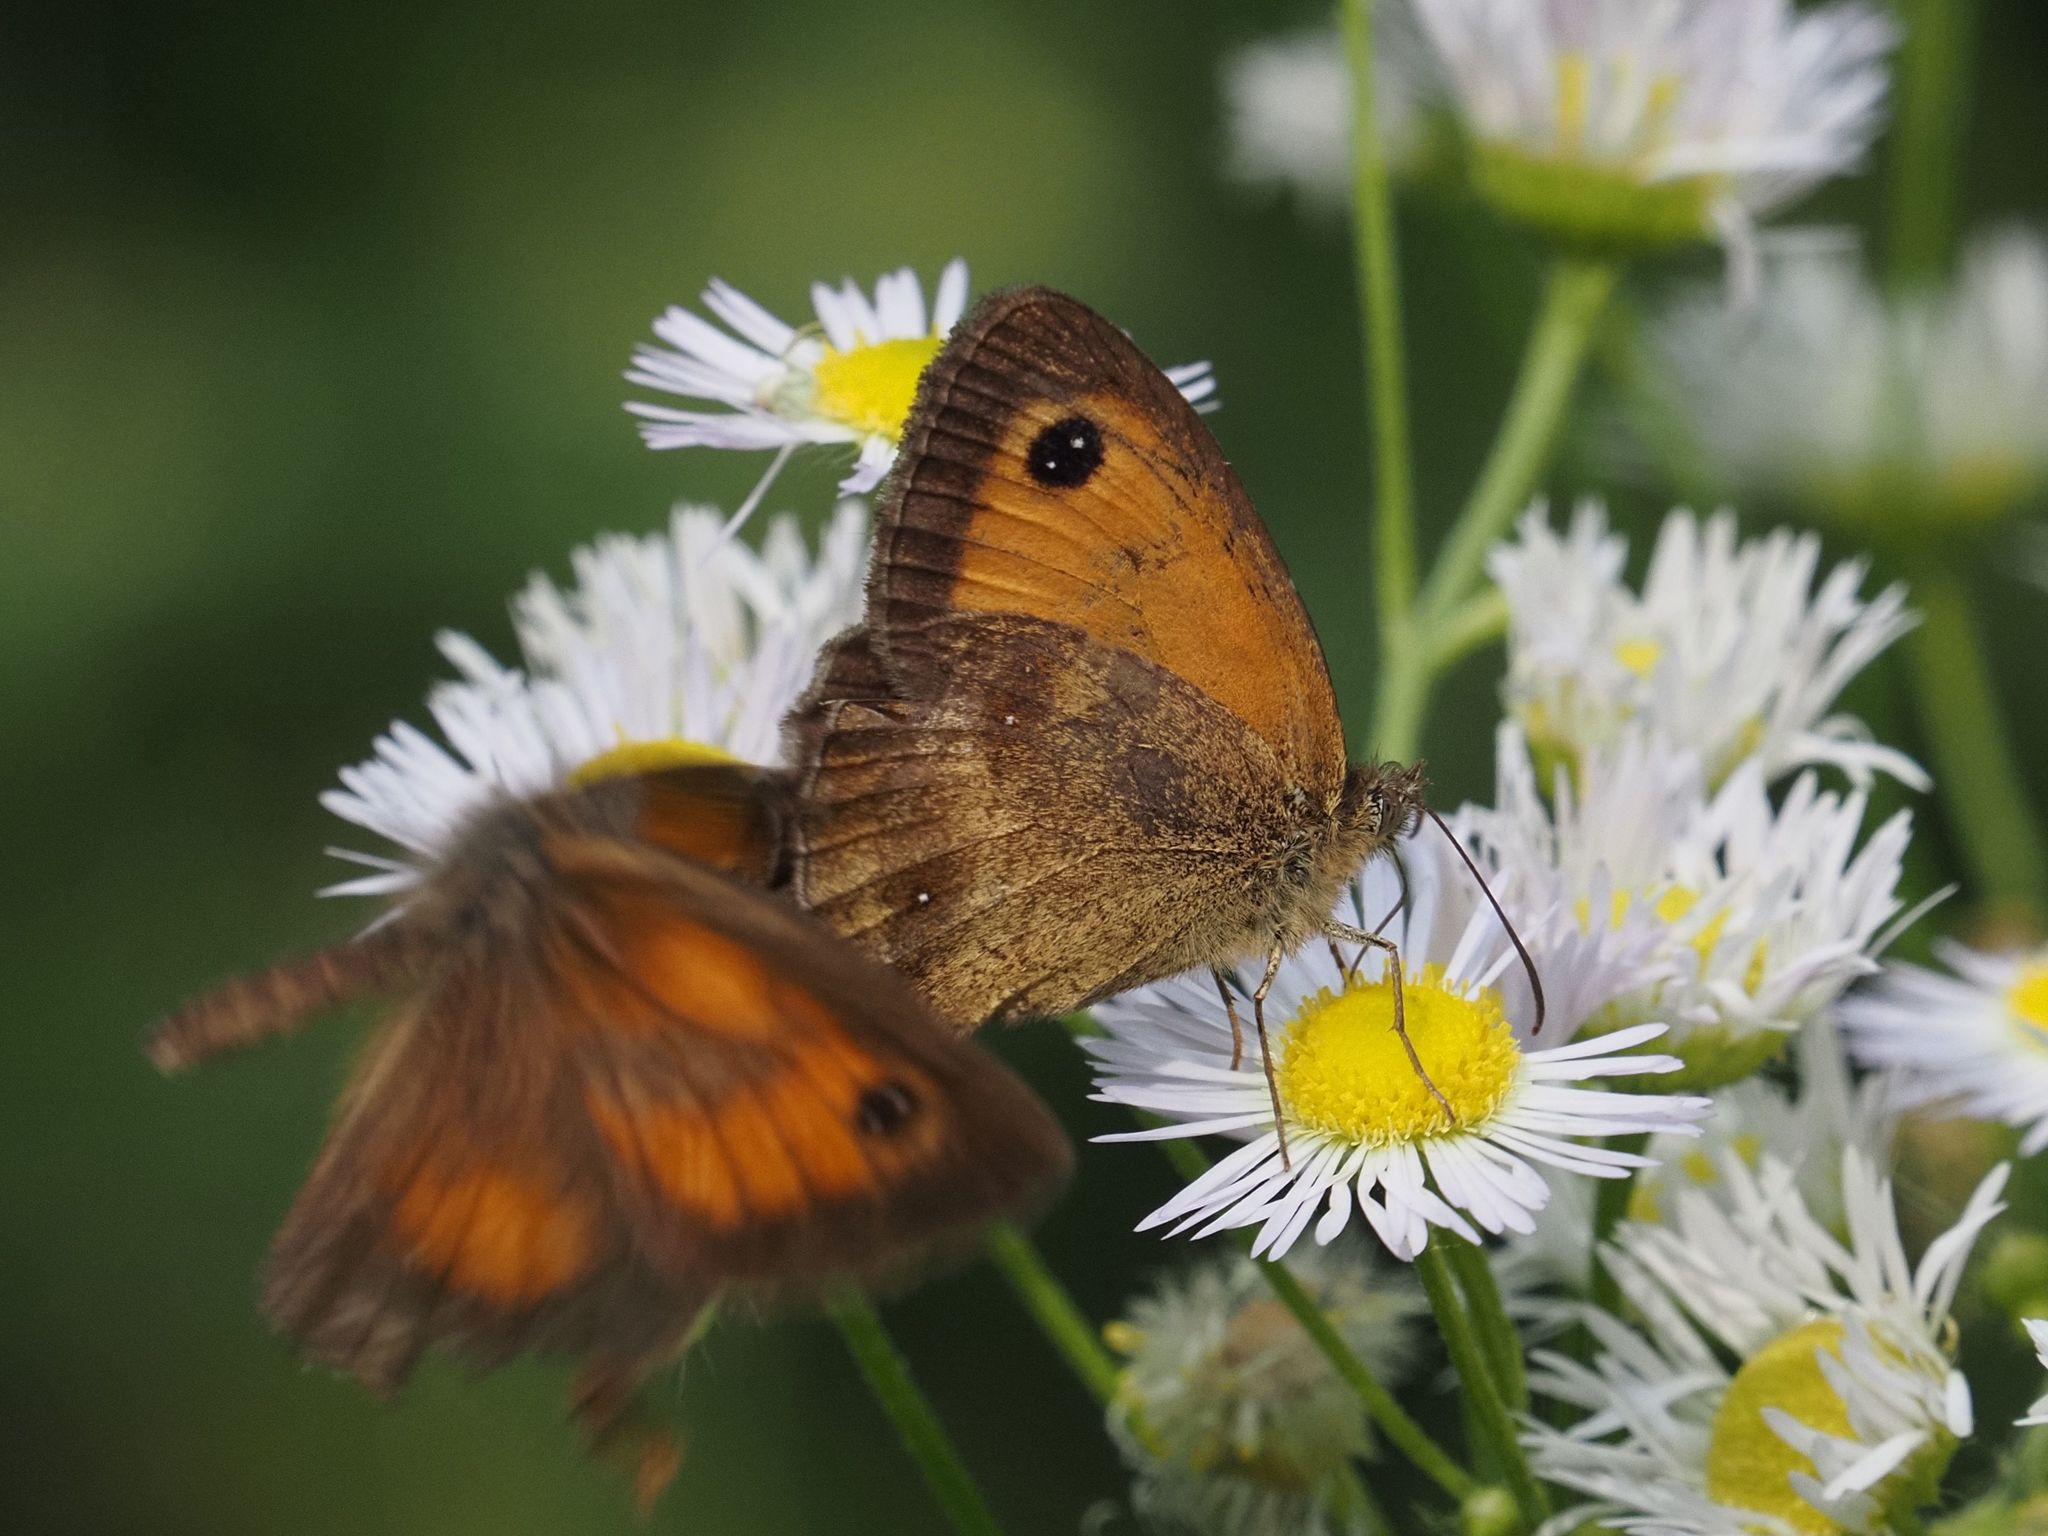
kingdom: Animalia
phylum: Arthropoda
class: Insecta
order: Lepidoptera
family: Nymphalidae
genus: Pyronia
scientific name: Pyronia tithonus
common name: Gatekeeper
